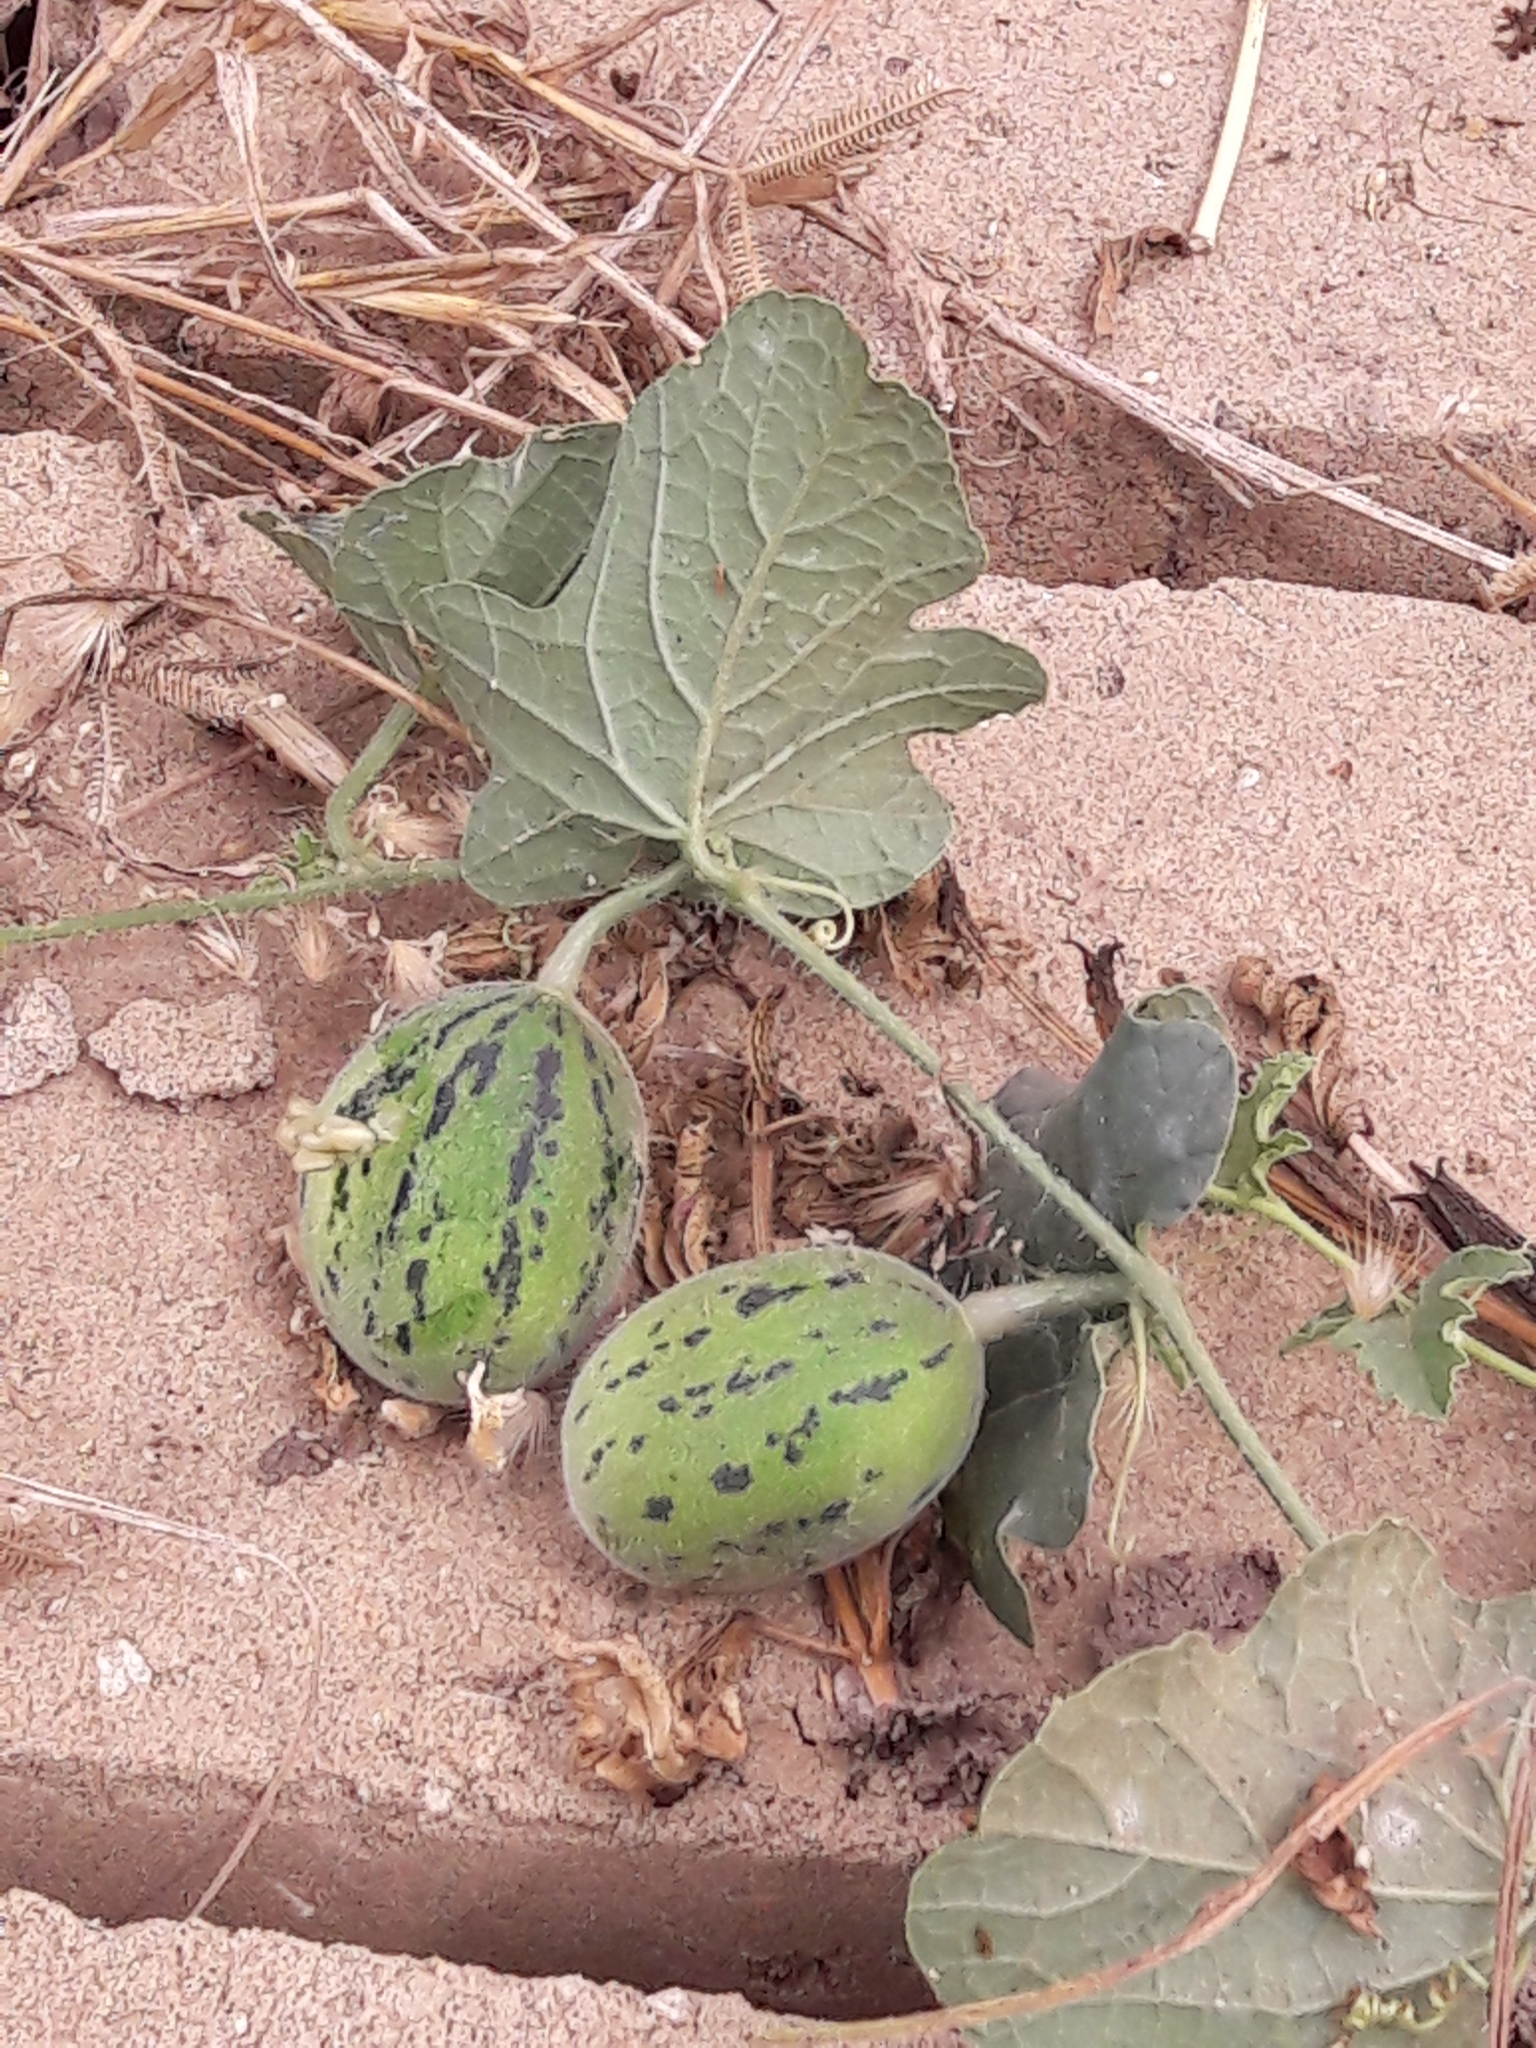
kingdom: Plantae
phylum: Tracheophyta
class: Magnoliopsida
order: Cucurbitales
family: Cucurbitaceae
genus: Cucumis
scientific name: Cucumis melo
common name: Melon
